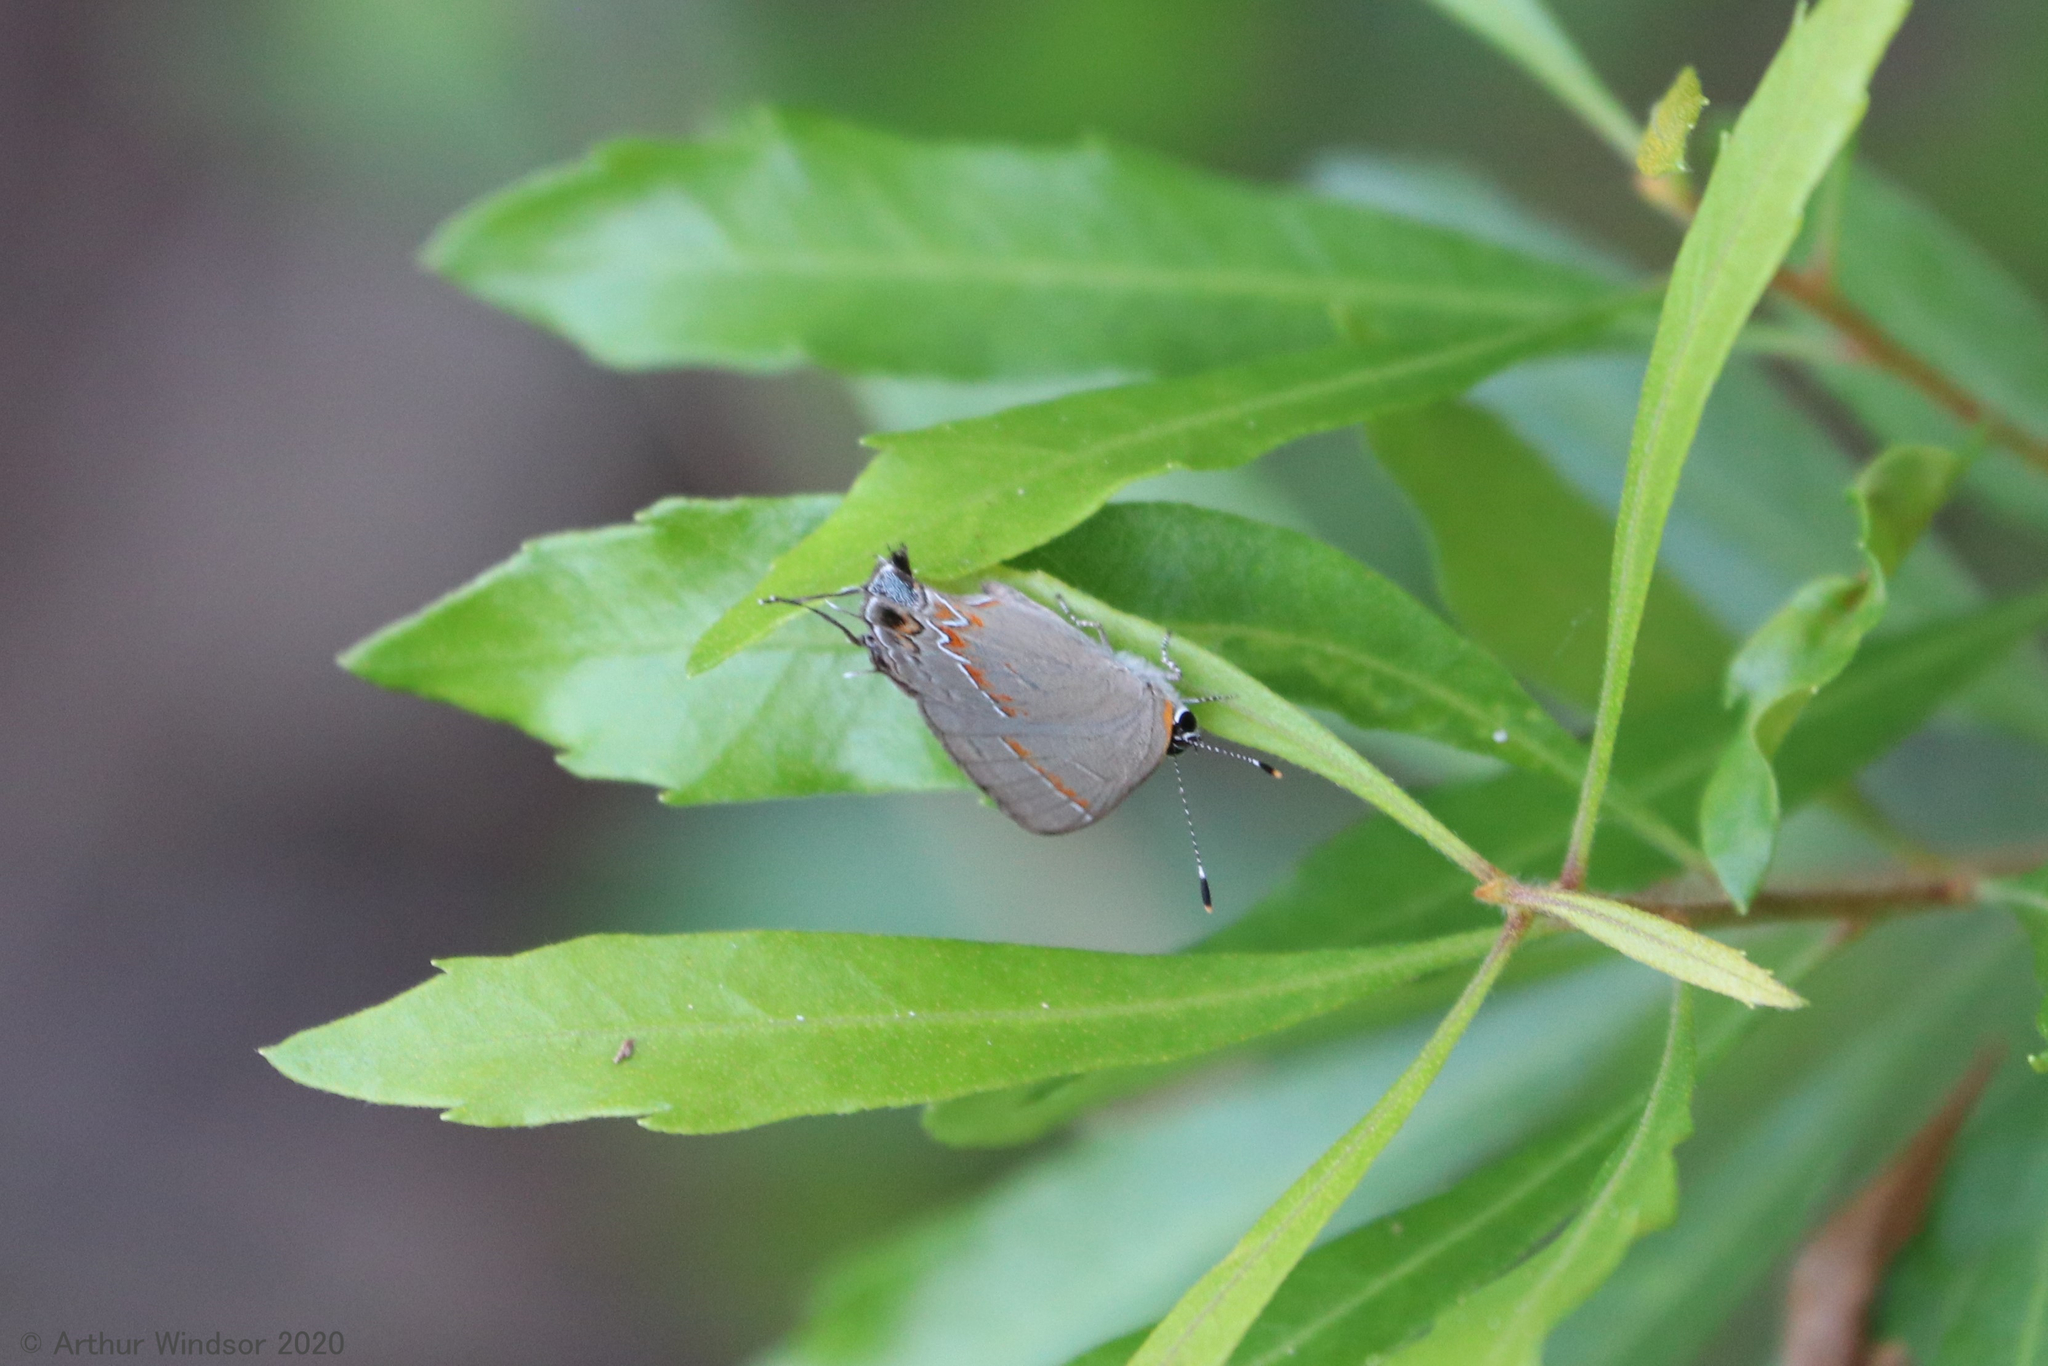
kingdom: Animalia
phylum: Arthropoda
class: Insecta
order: Lepidoptera
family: Lycaenidae
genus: Calycopis
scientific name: Calycopis cecrops
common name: Red-banded hairstreak
